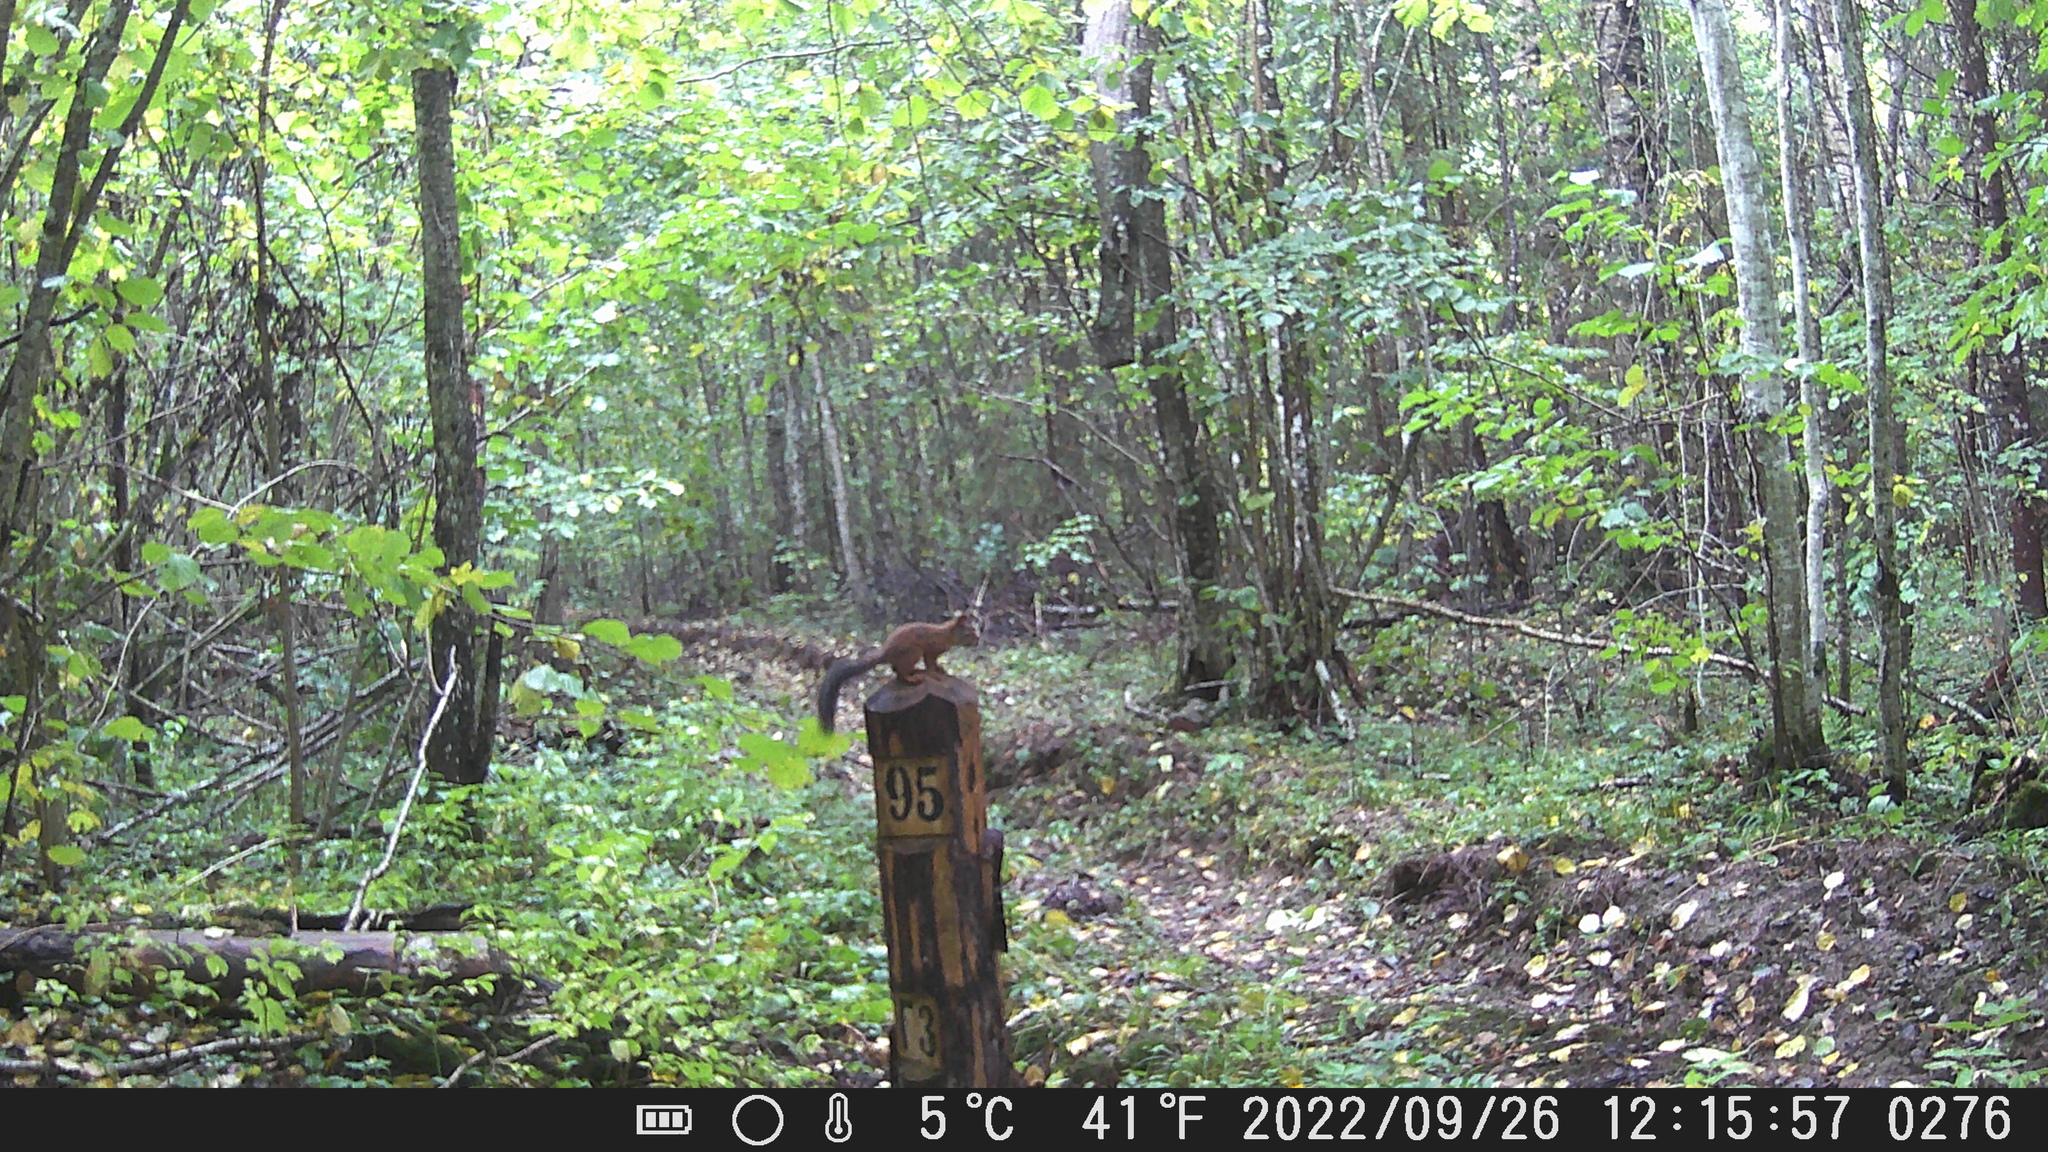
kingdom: Animalia
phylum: Chordata
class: Mammalia
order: Rodentia
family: Sciuridae
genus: Sciurus
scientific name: Sciurus vulgaris
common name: Eurasian red squirrel
